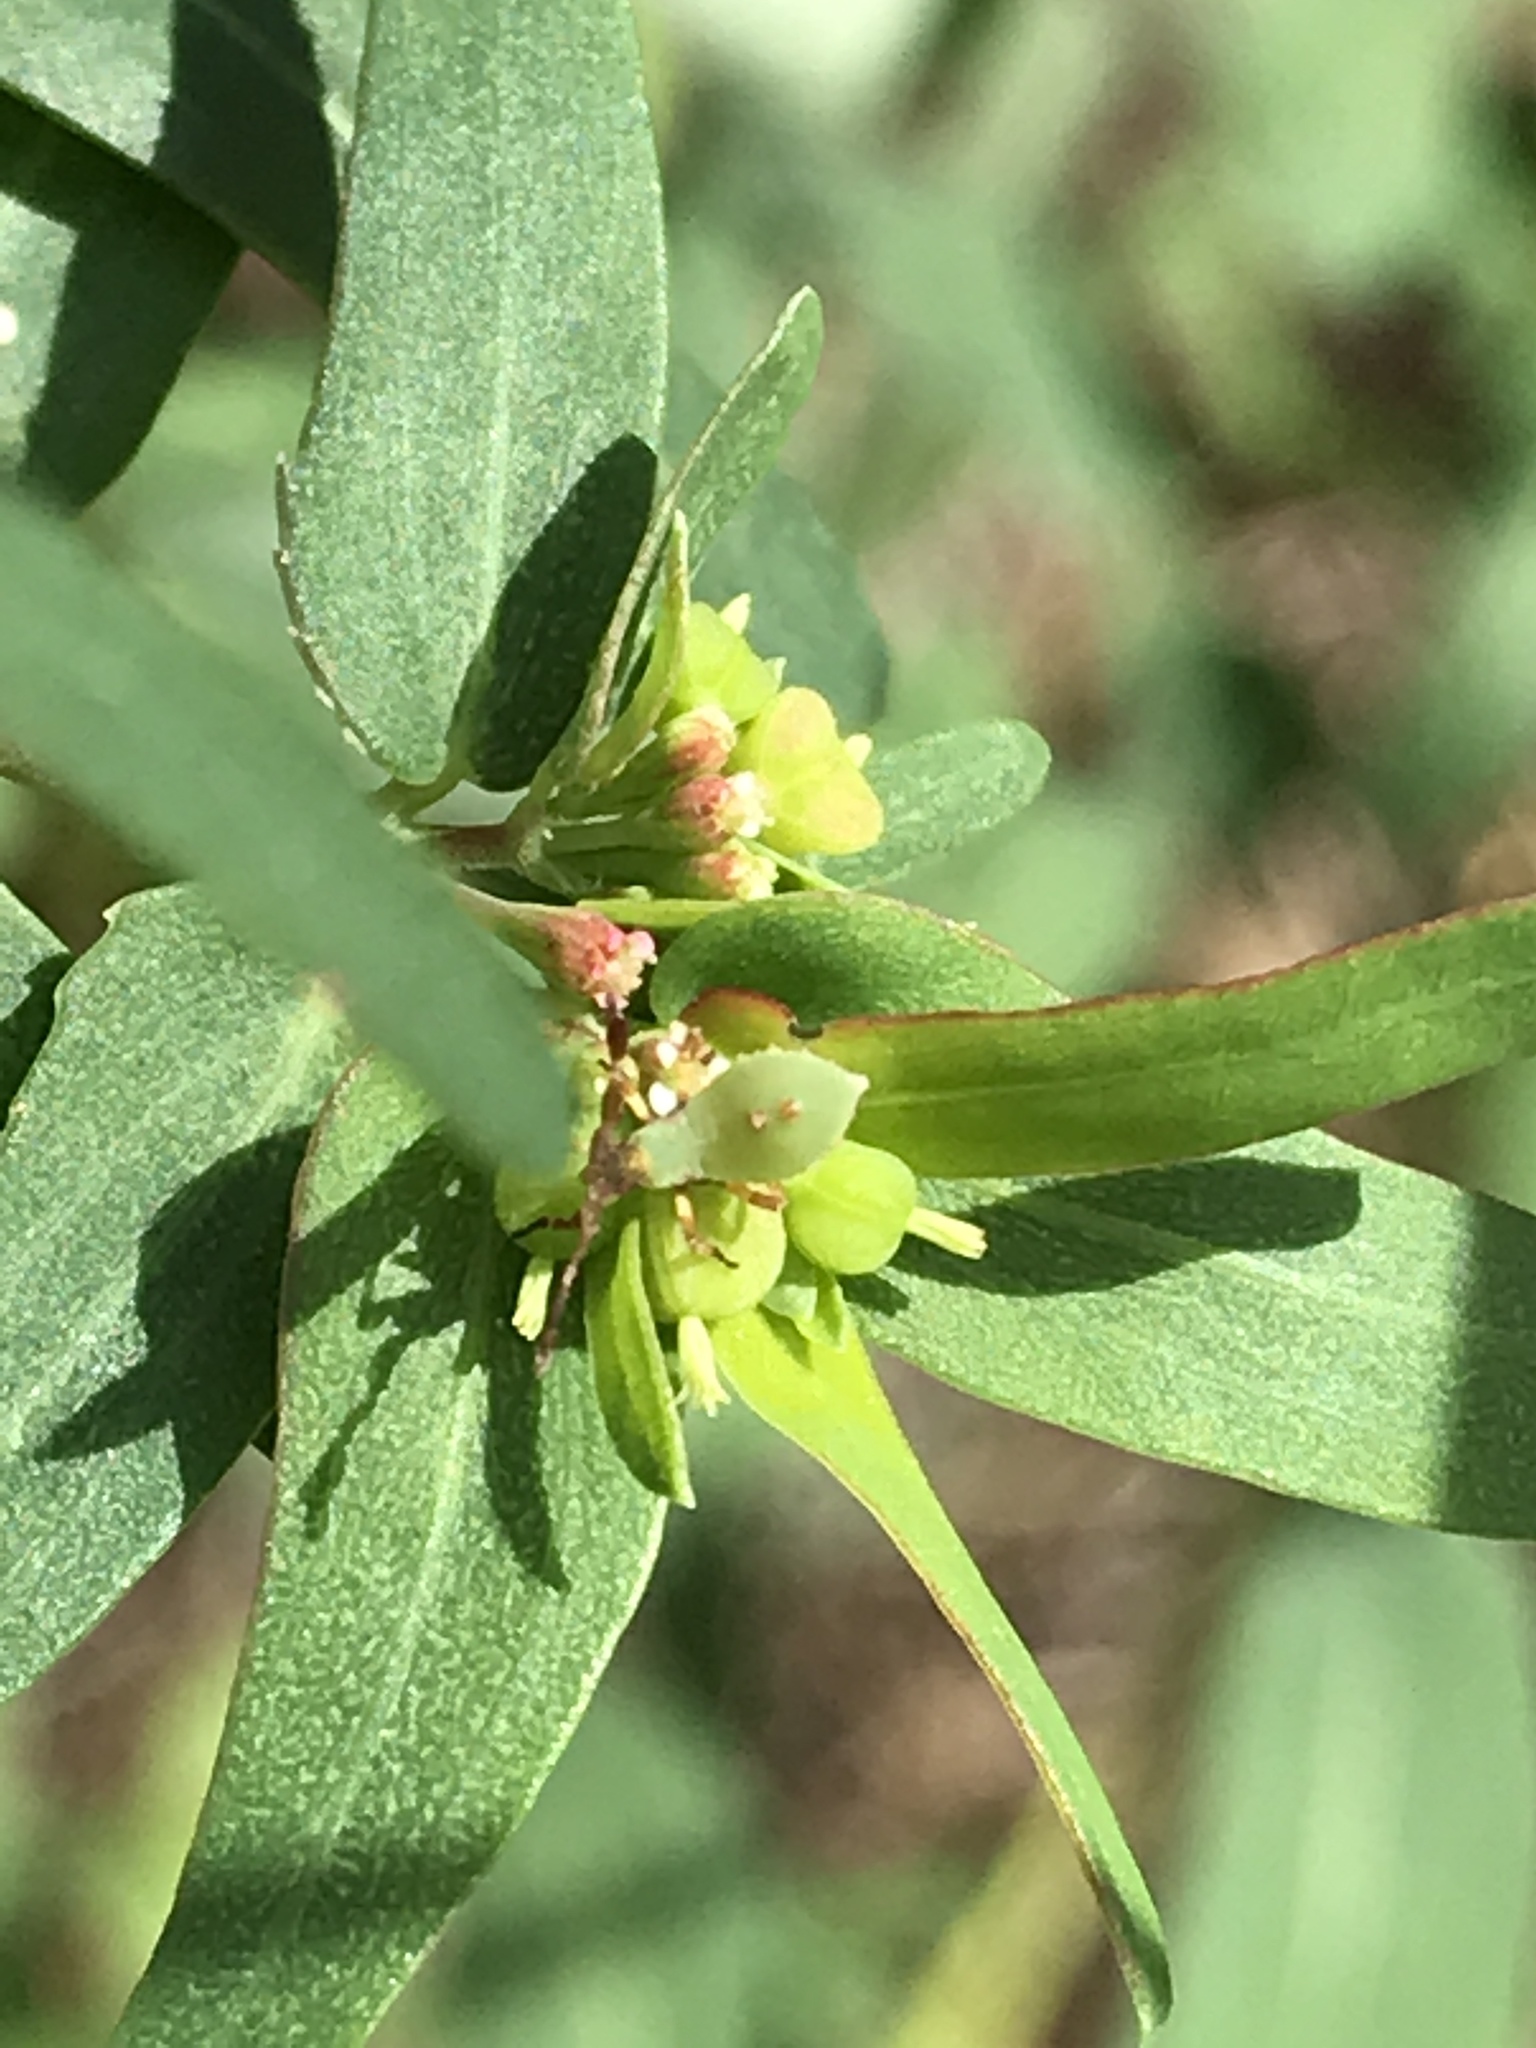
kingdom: Plantae
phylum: Tracheophyta
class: Magnoliopsida
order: Malpighiales
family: Euphorbiaceae
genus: Euphorbia
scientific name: Euphorbia nutans
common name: Eyebane
